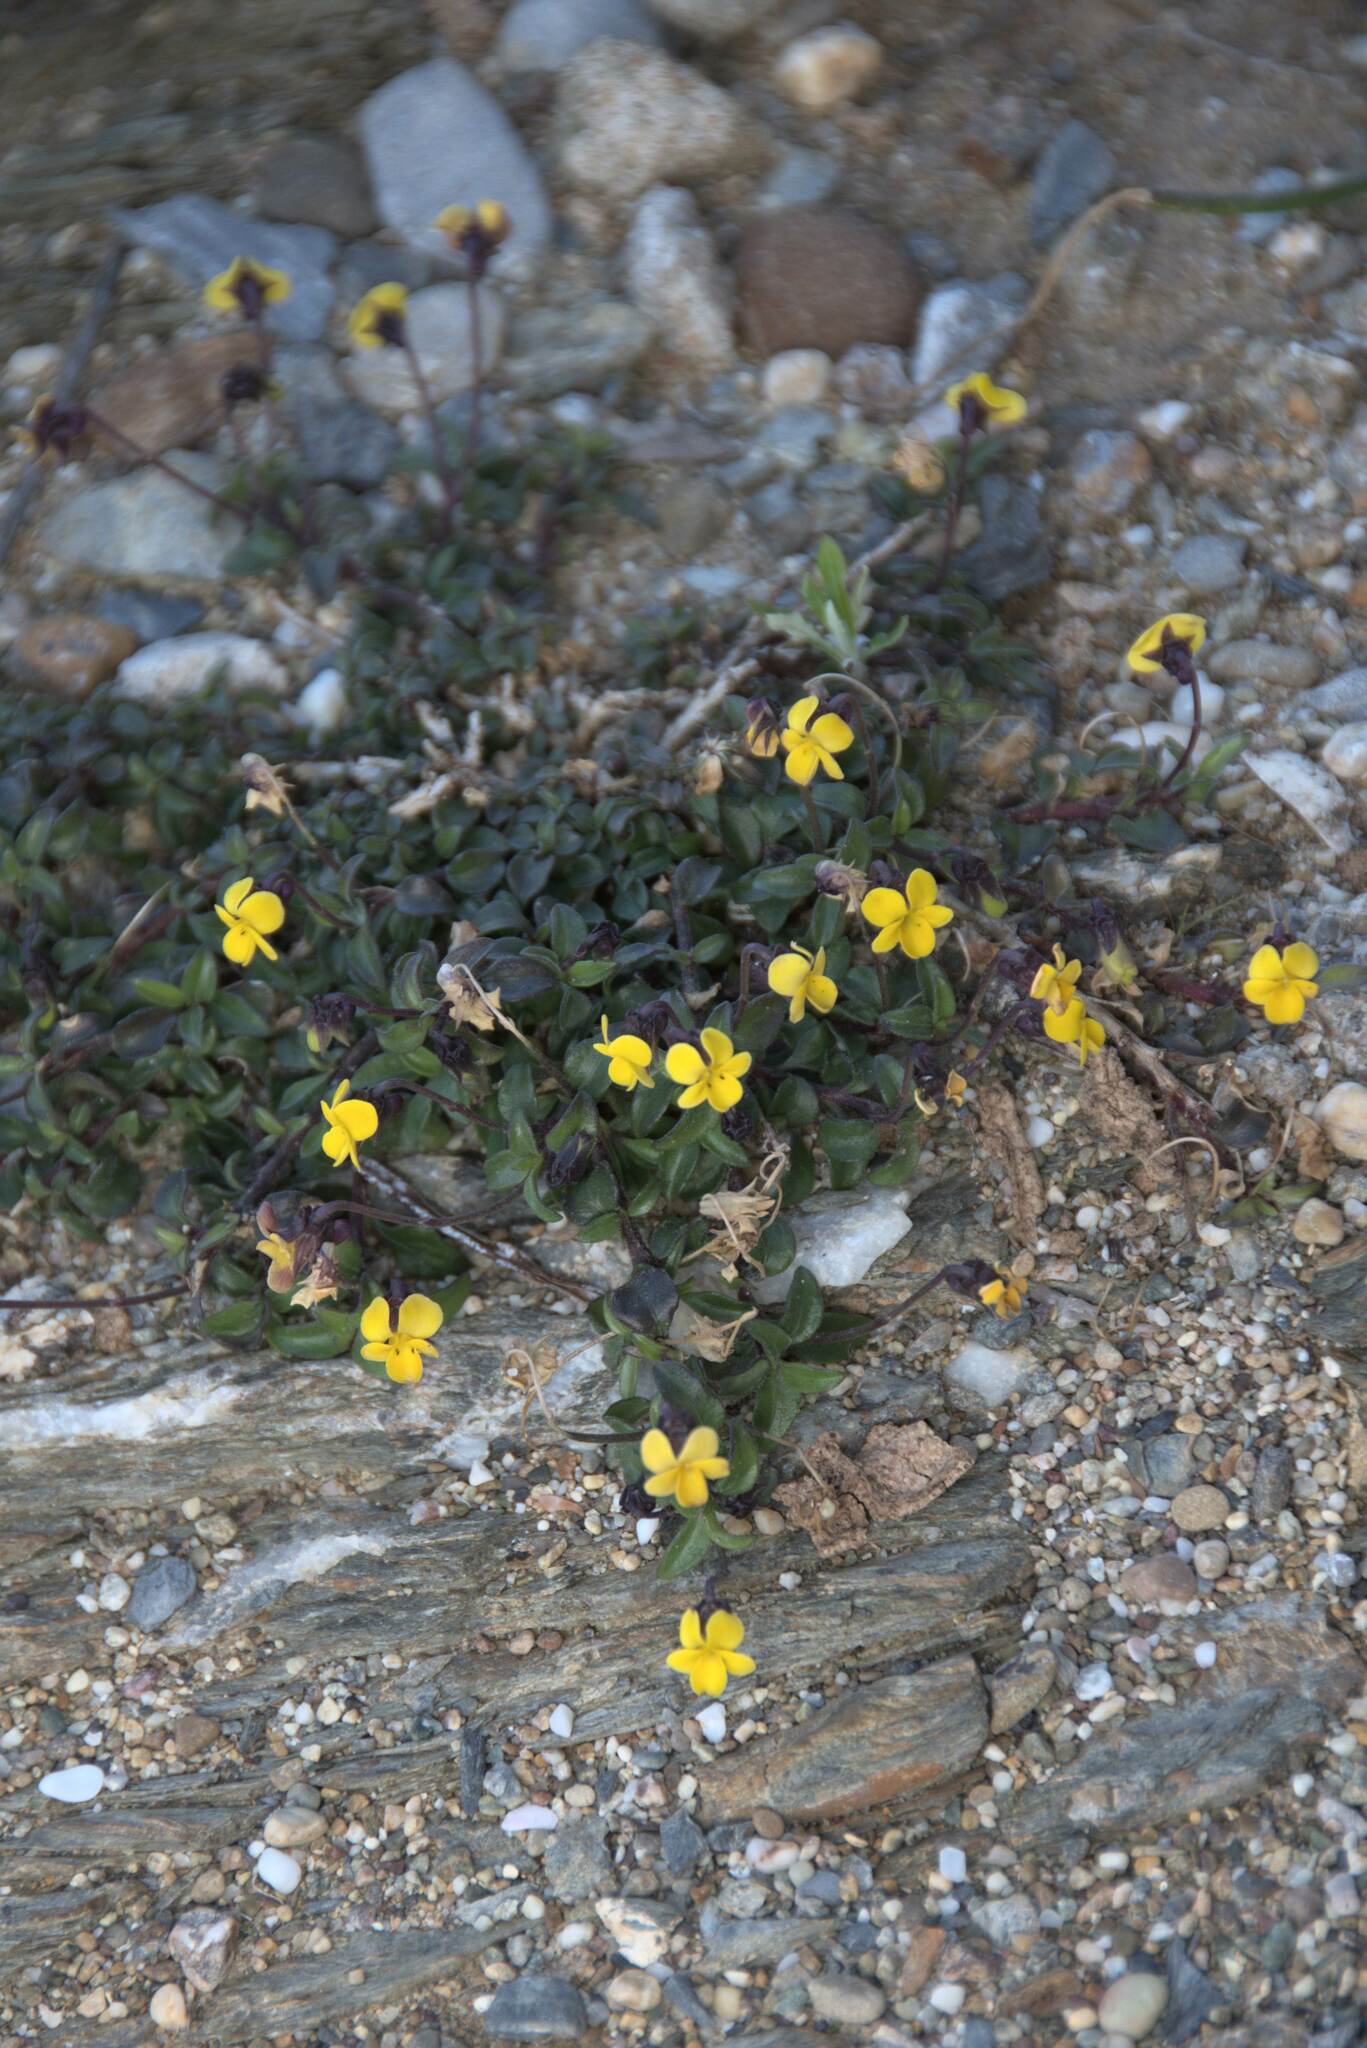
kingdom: Plantae
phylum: Tracheophyta
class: Magnoliopsida
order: Malpighiales
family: Violaceae
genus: Viola
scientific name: Viola scorpiuroides
